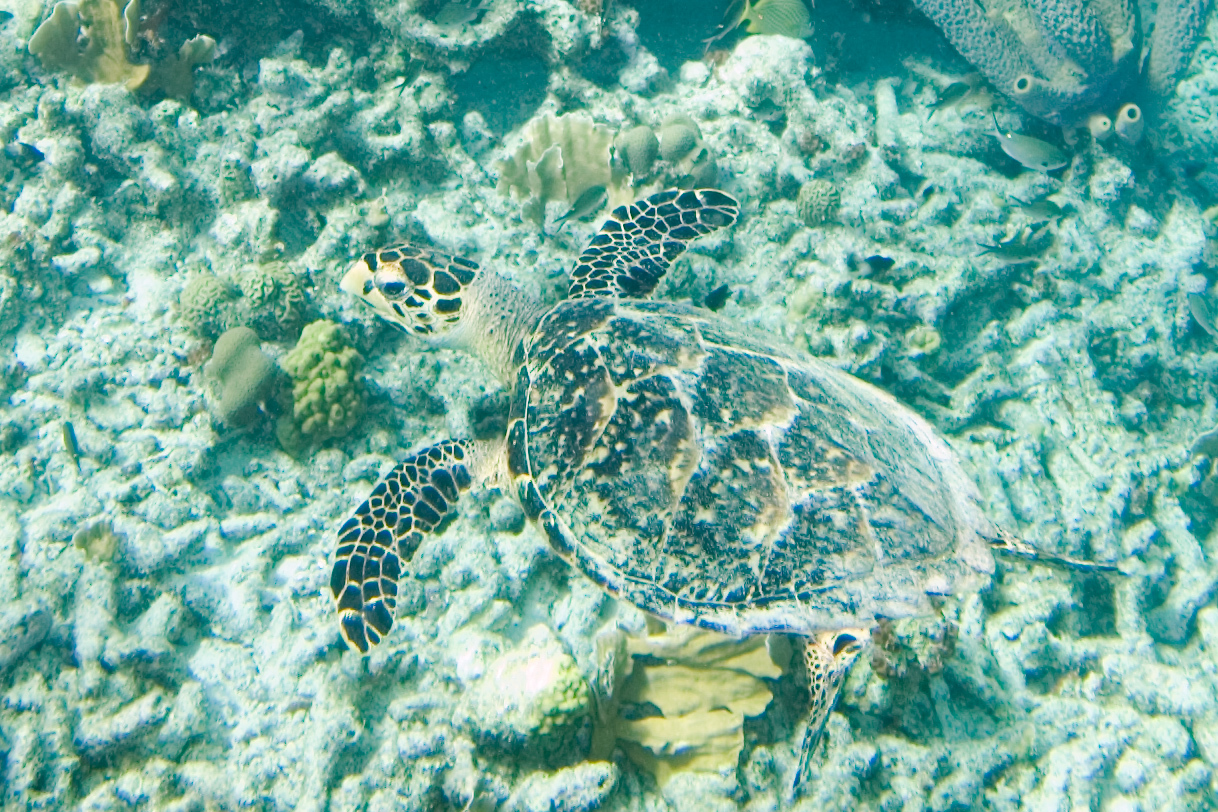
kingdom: Animalia
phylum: Chordata
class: Testudines
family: Cheloniidae
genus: Eretmochelys
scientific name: Eretmochelys imbricata
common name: Hawksbill turtle
